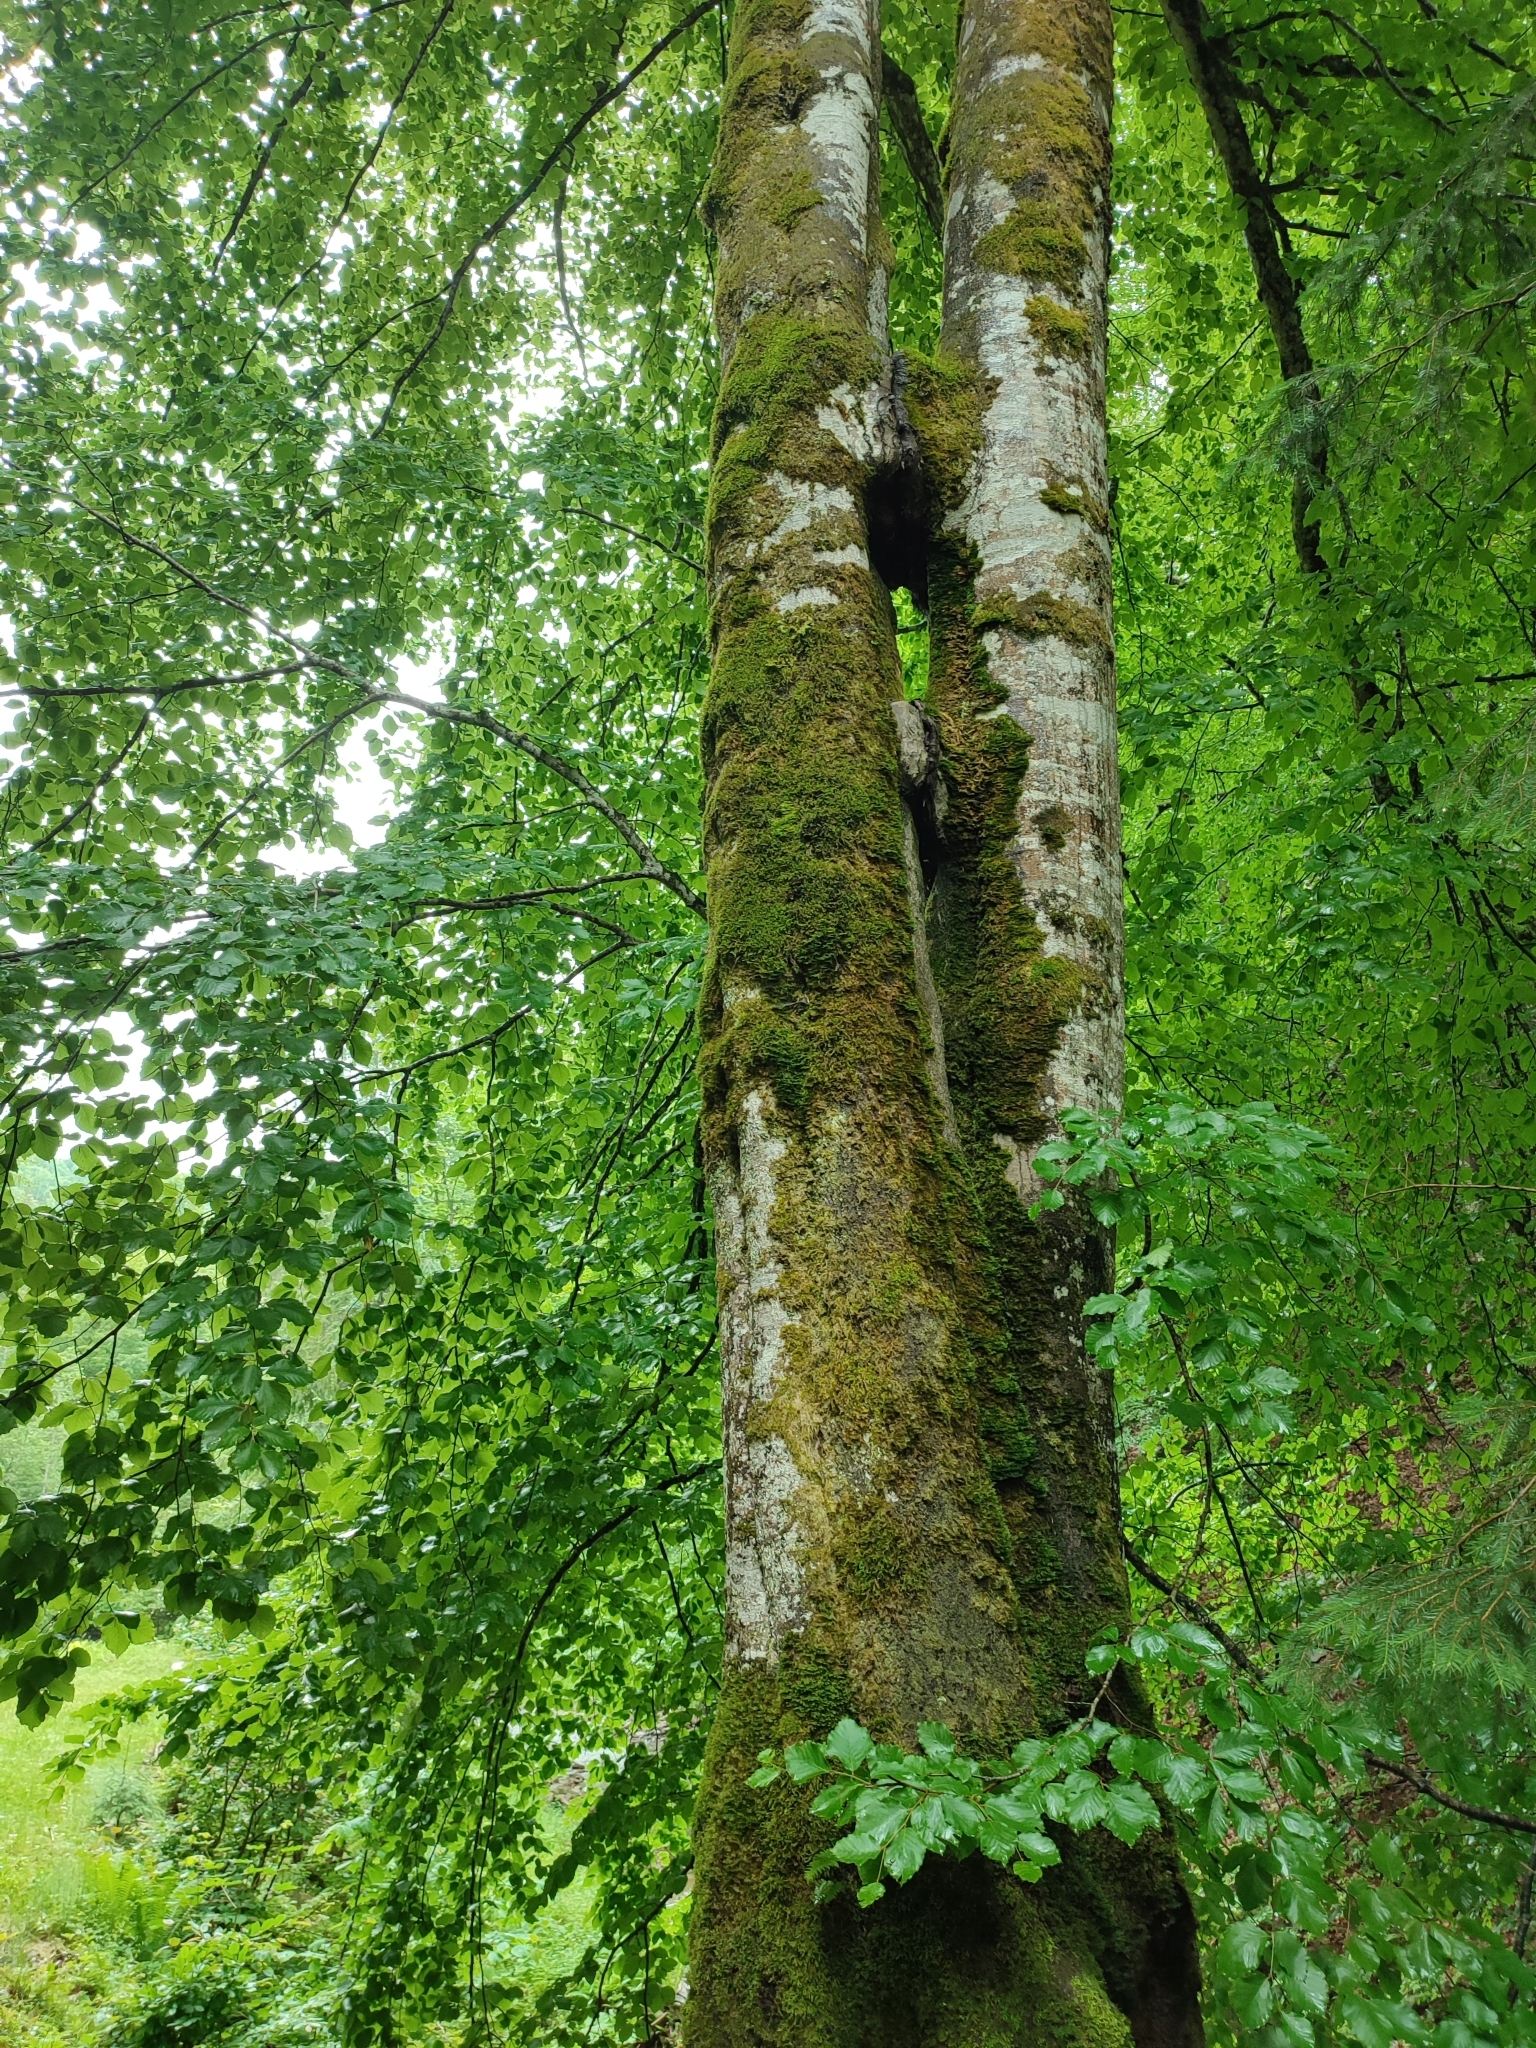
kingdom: Plantae
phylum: Tracheophyta
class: Magnoliopsida
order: Fagales
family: Fagaceae
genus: Fagus
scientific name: Fagus sylvatica
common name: Beech
